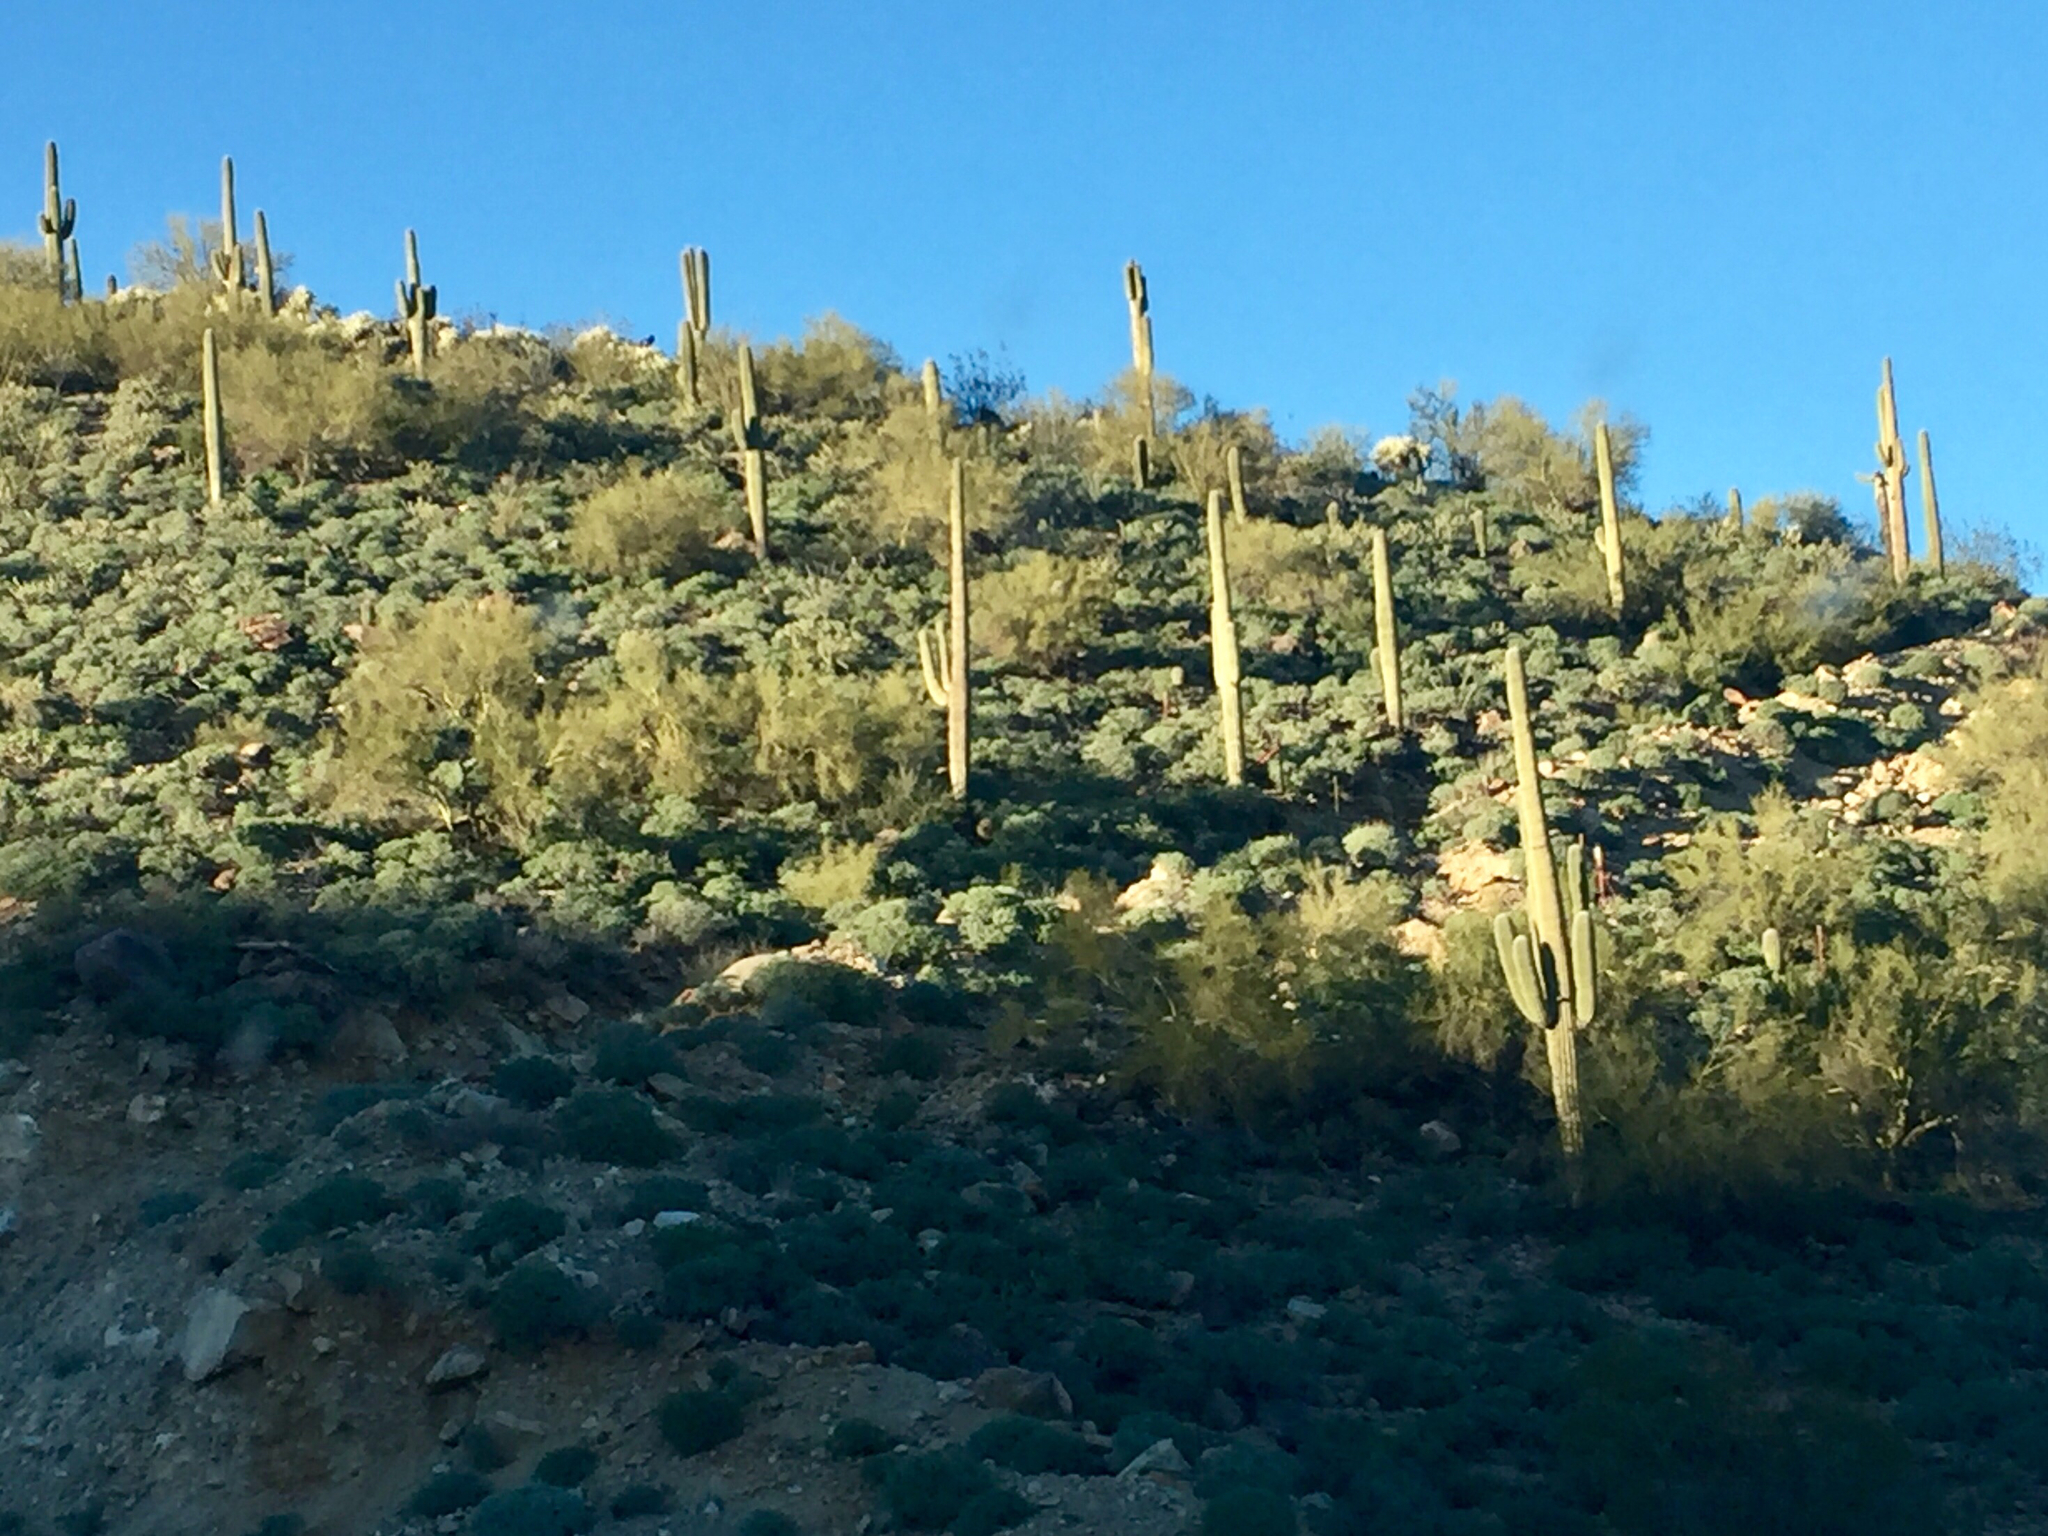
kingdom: Plantae
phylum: Tracheophyta
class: Magnoliopsida
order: Caryophyllales
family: Cactaceae
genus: Carnegiea
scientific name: Carnegiea gigantea
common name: Saguaro
